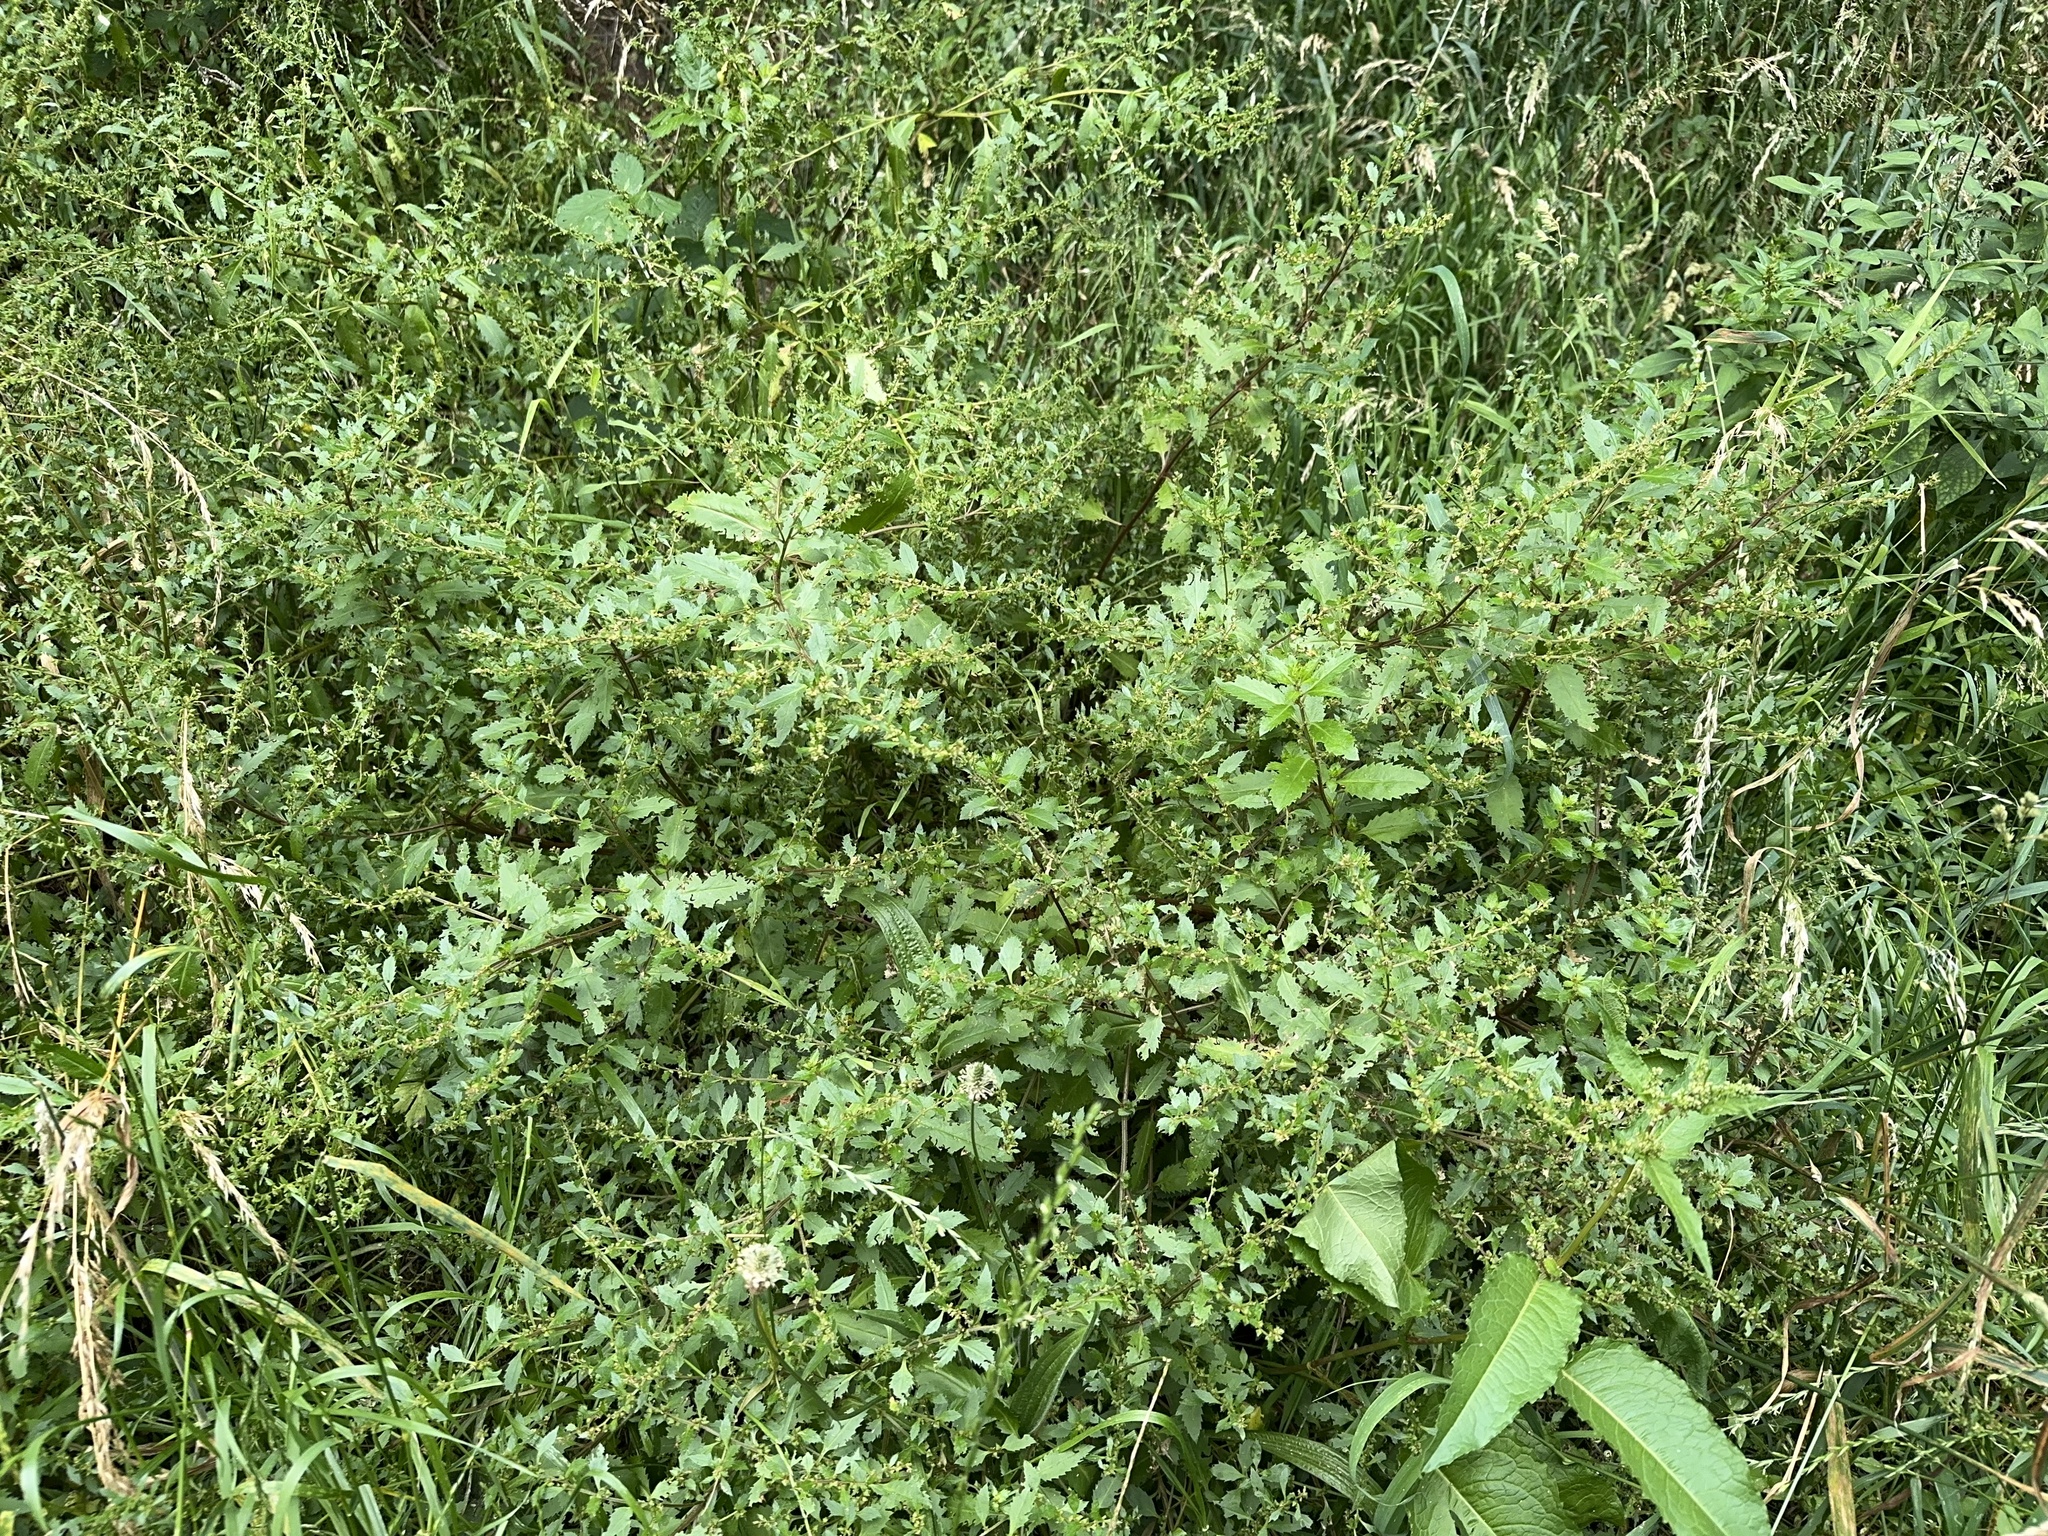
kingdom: Plantae
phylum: Tracheophyta
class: Magnoliopsida
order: Saxifragales
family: Haloragaceae
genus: Haloragis
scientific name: Haloragis erecta
